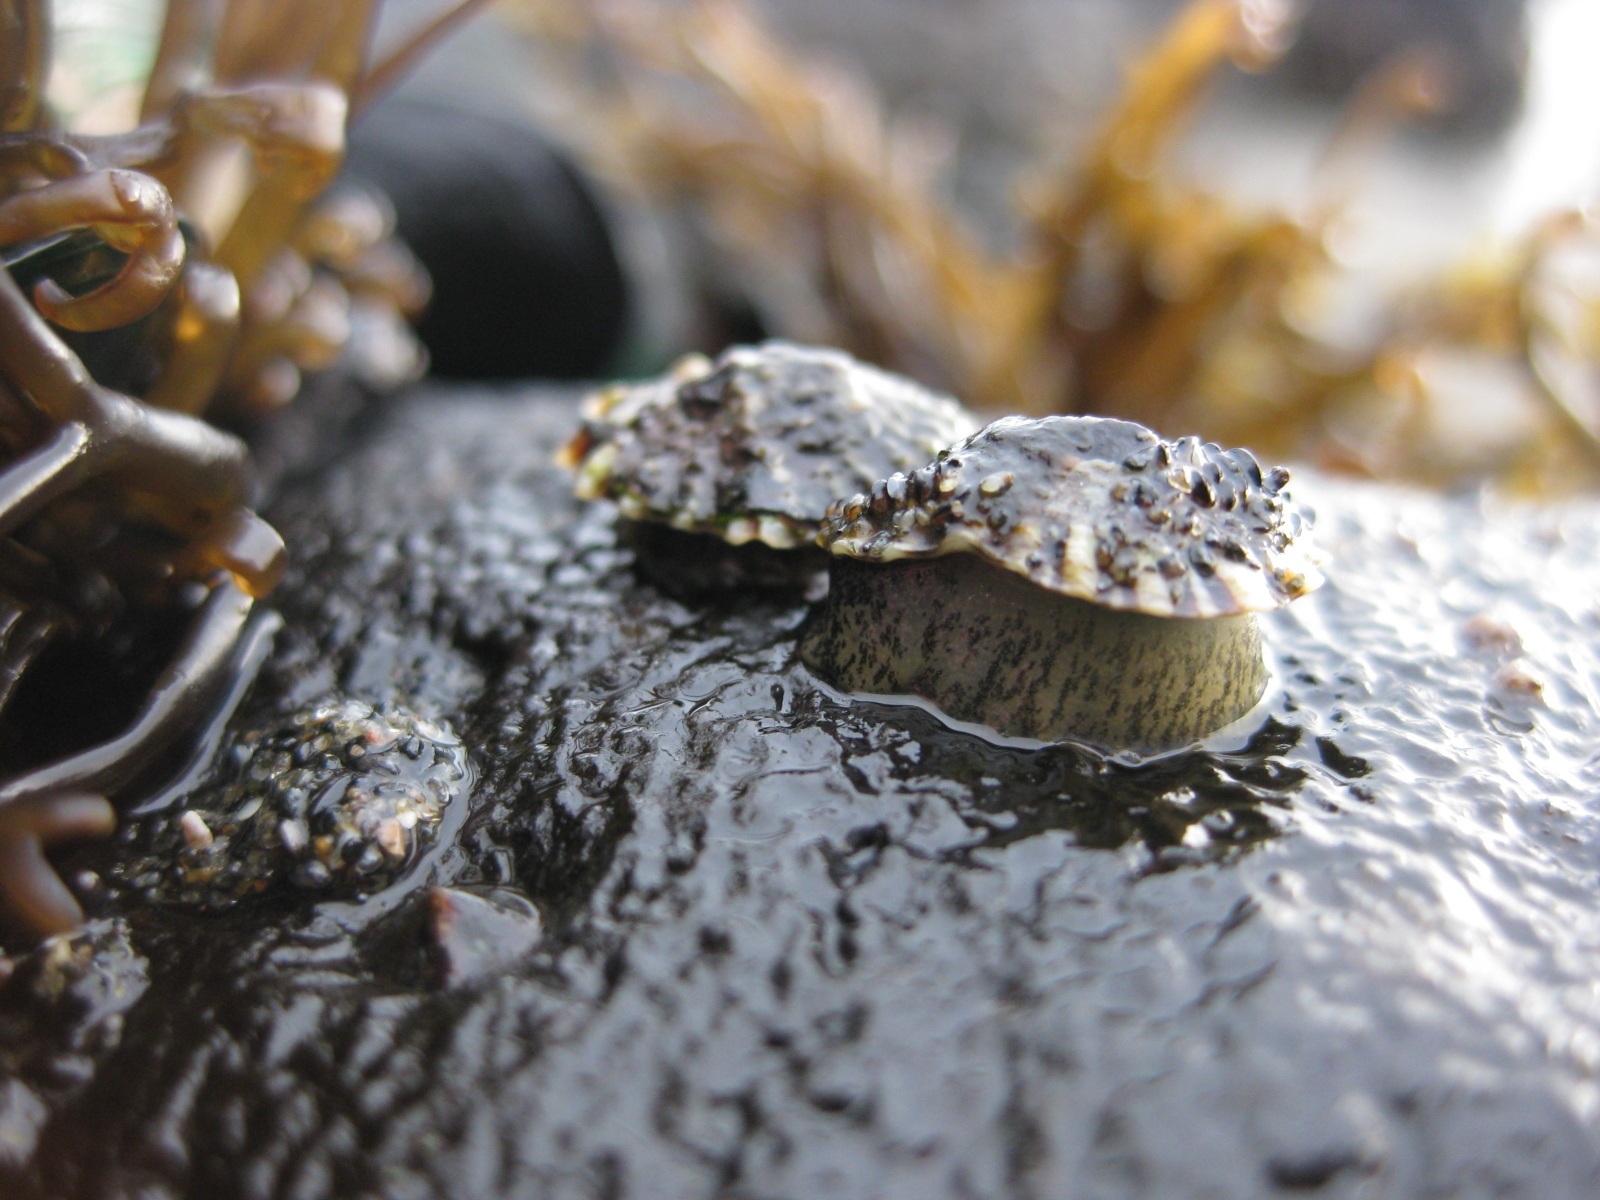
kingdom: Animalia
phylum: Mollusca
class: Gastropoda
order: Siphonariida
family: Siphonariidae
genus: Siphonaria
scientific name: Siphonaria australis
